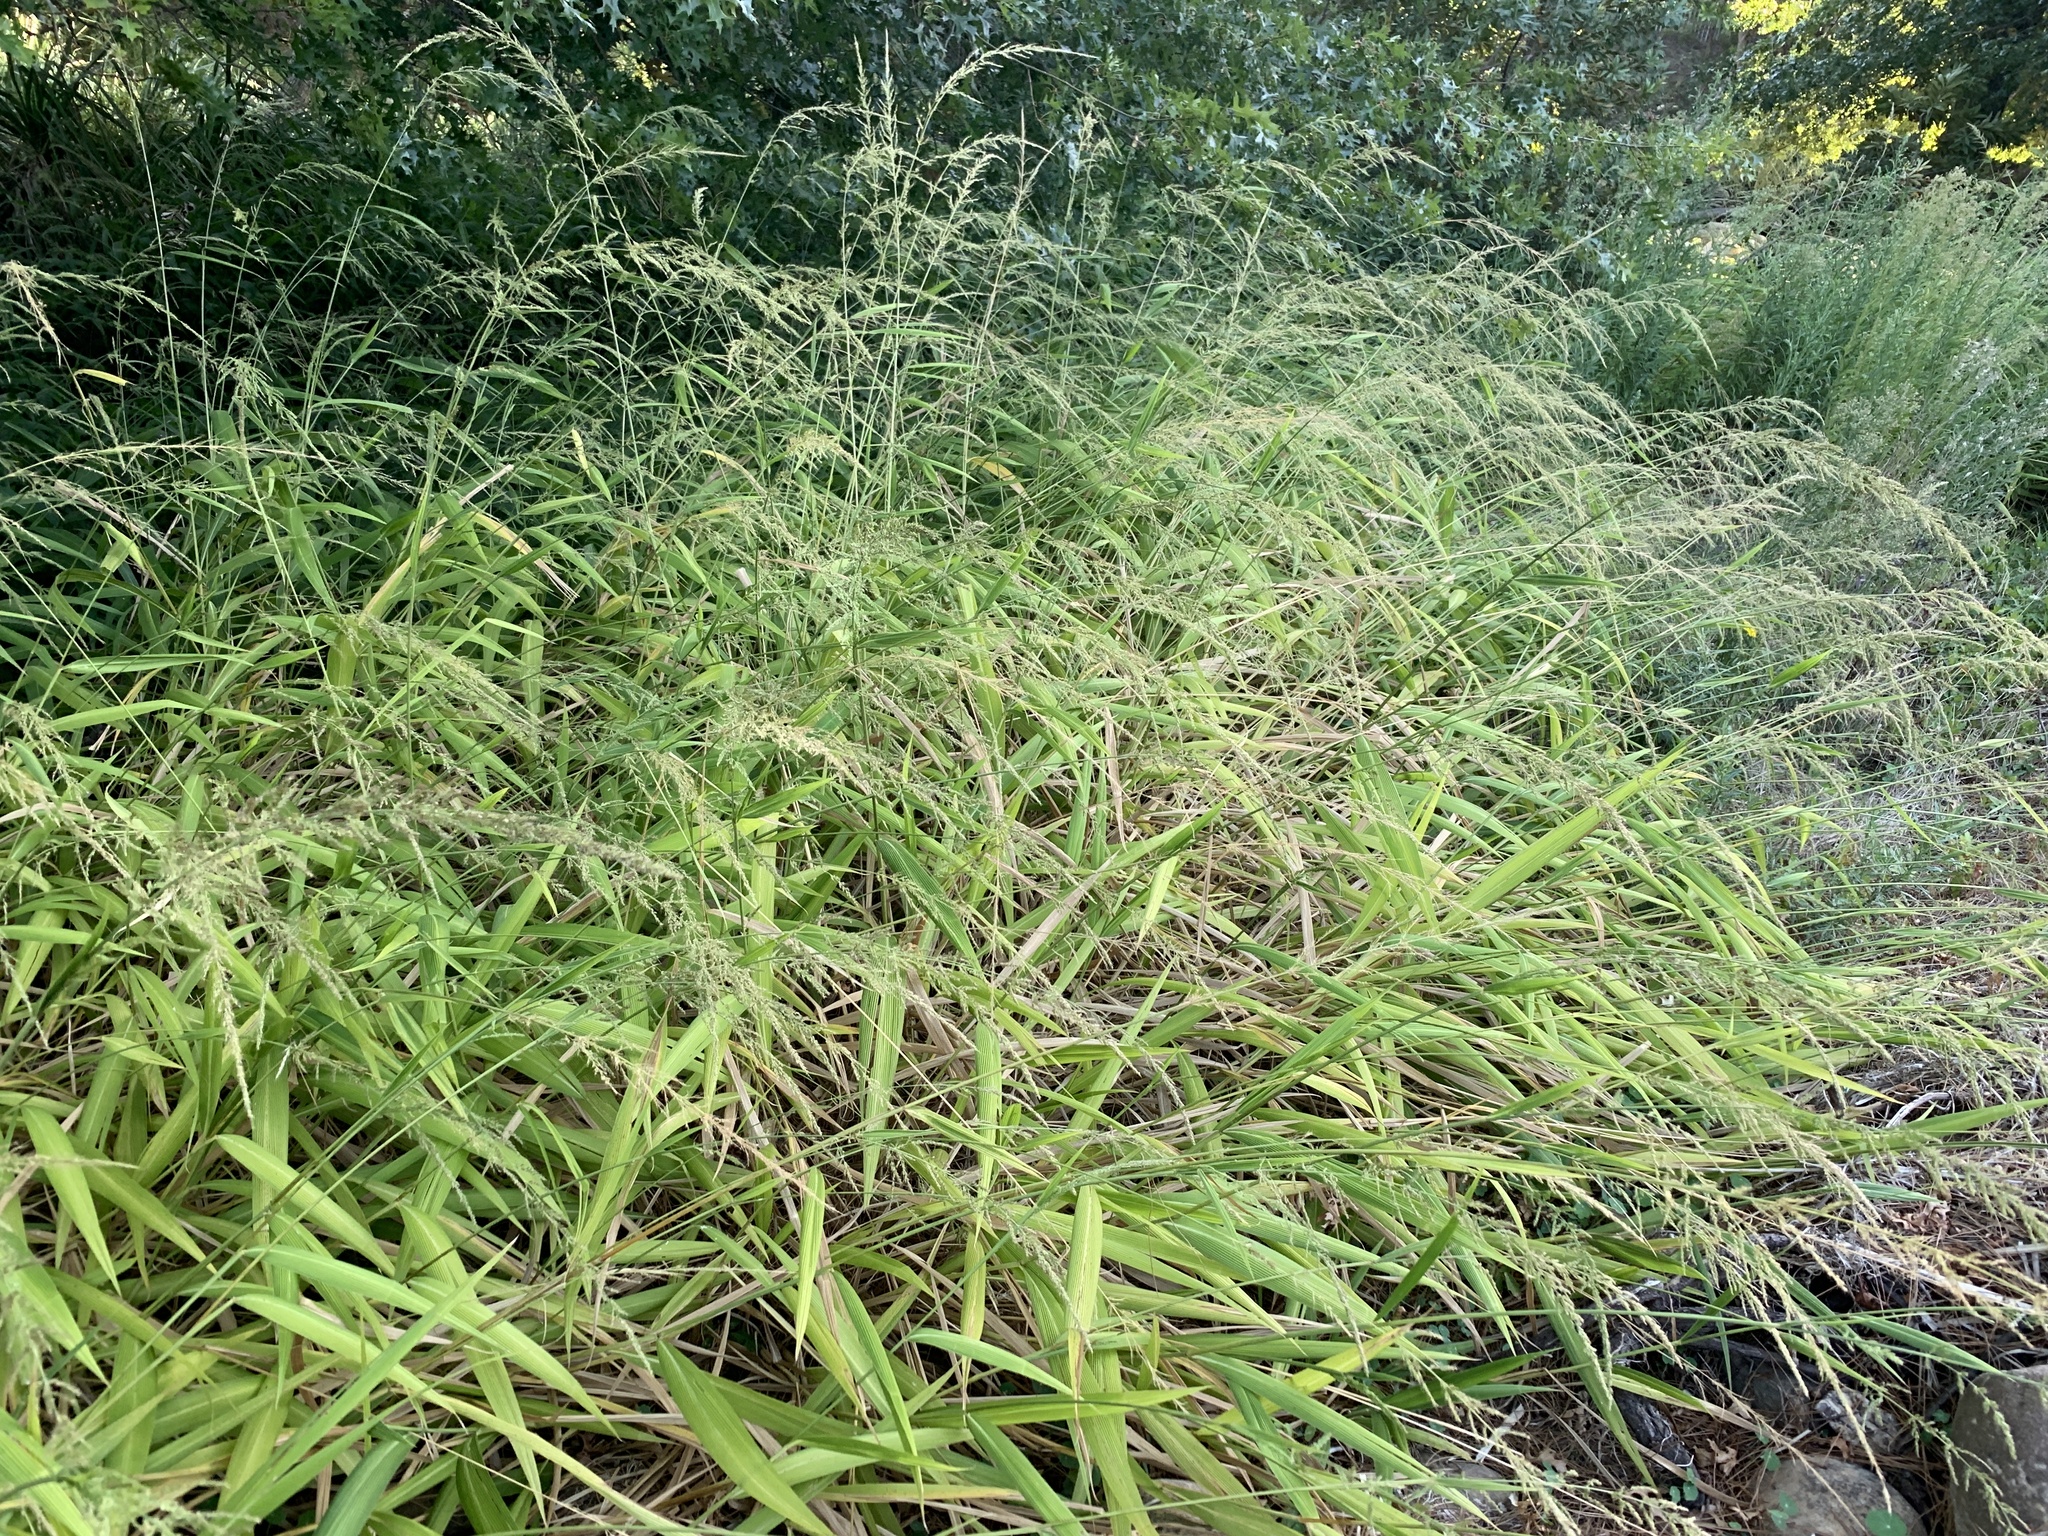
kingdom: Plantae
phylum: Tracheophyta
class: Liliopsida
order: Poales
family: Poaceae
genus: Setaria
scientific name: Setaria megaphylla
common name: Bigleaf bristlegrass
